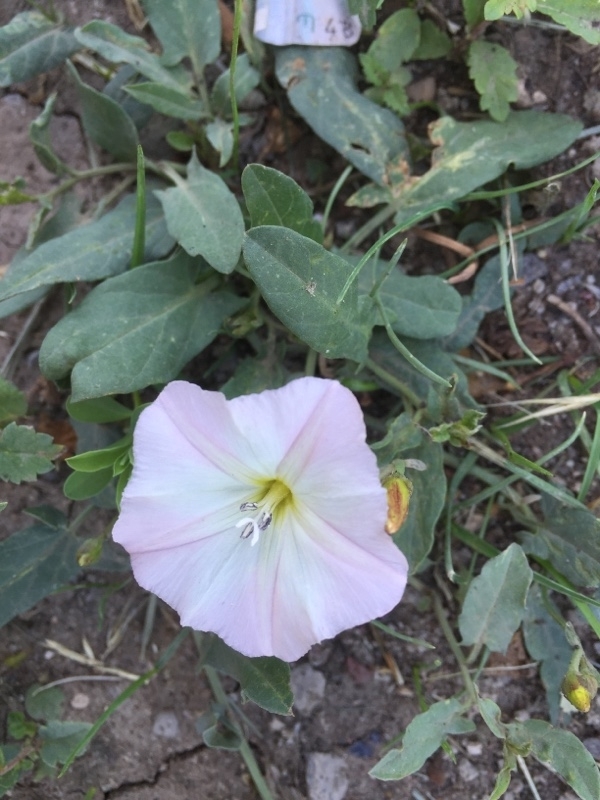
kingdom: Plantae
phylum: Tracheophyta
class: Magnoliopsida
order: Solanales
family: Convolvulaceae
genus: Convolvulus
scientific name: Convolvulus arvensis
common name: Field bindweed
